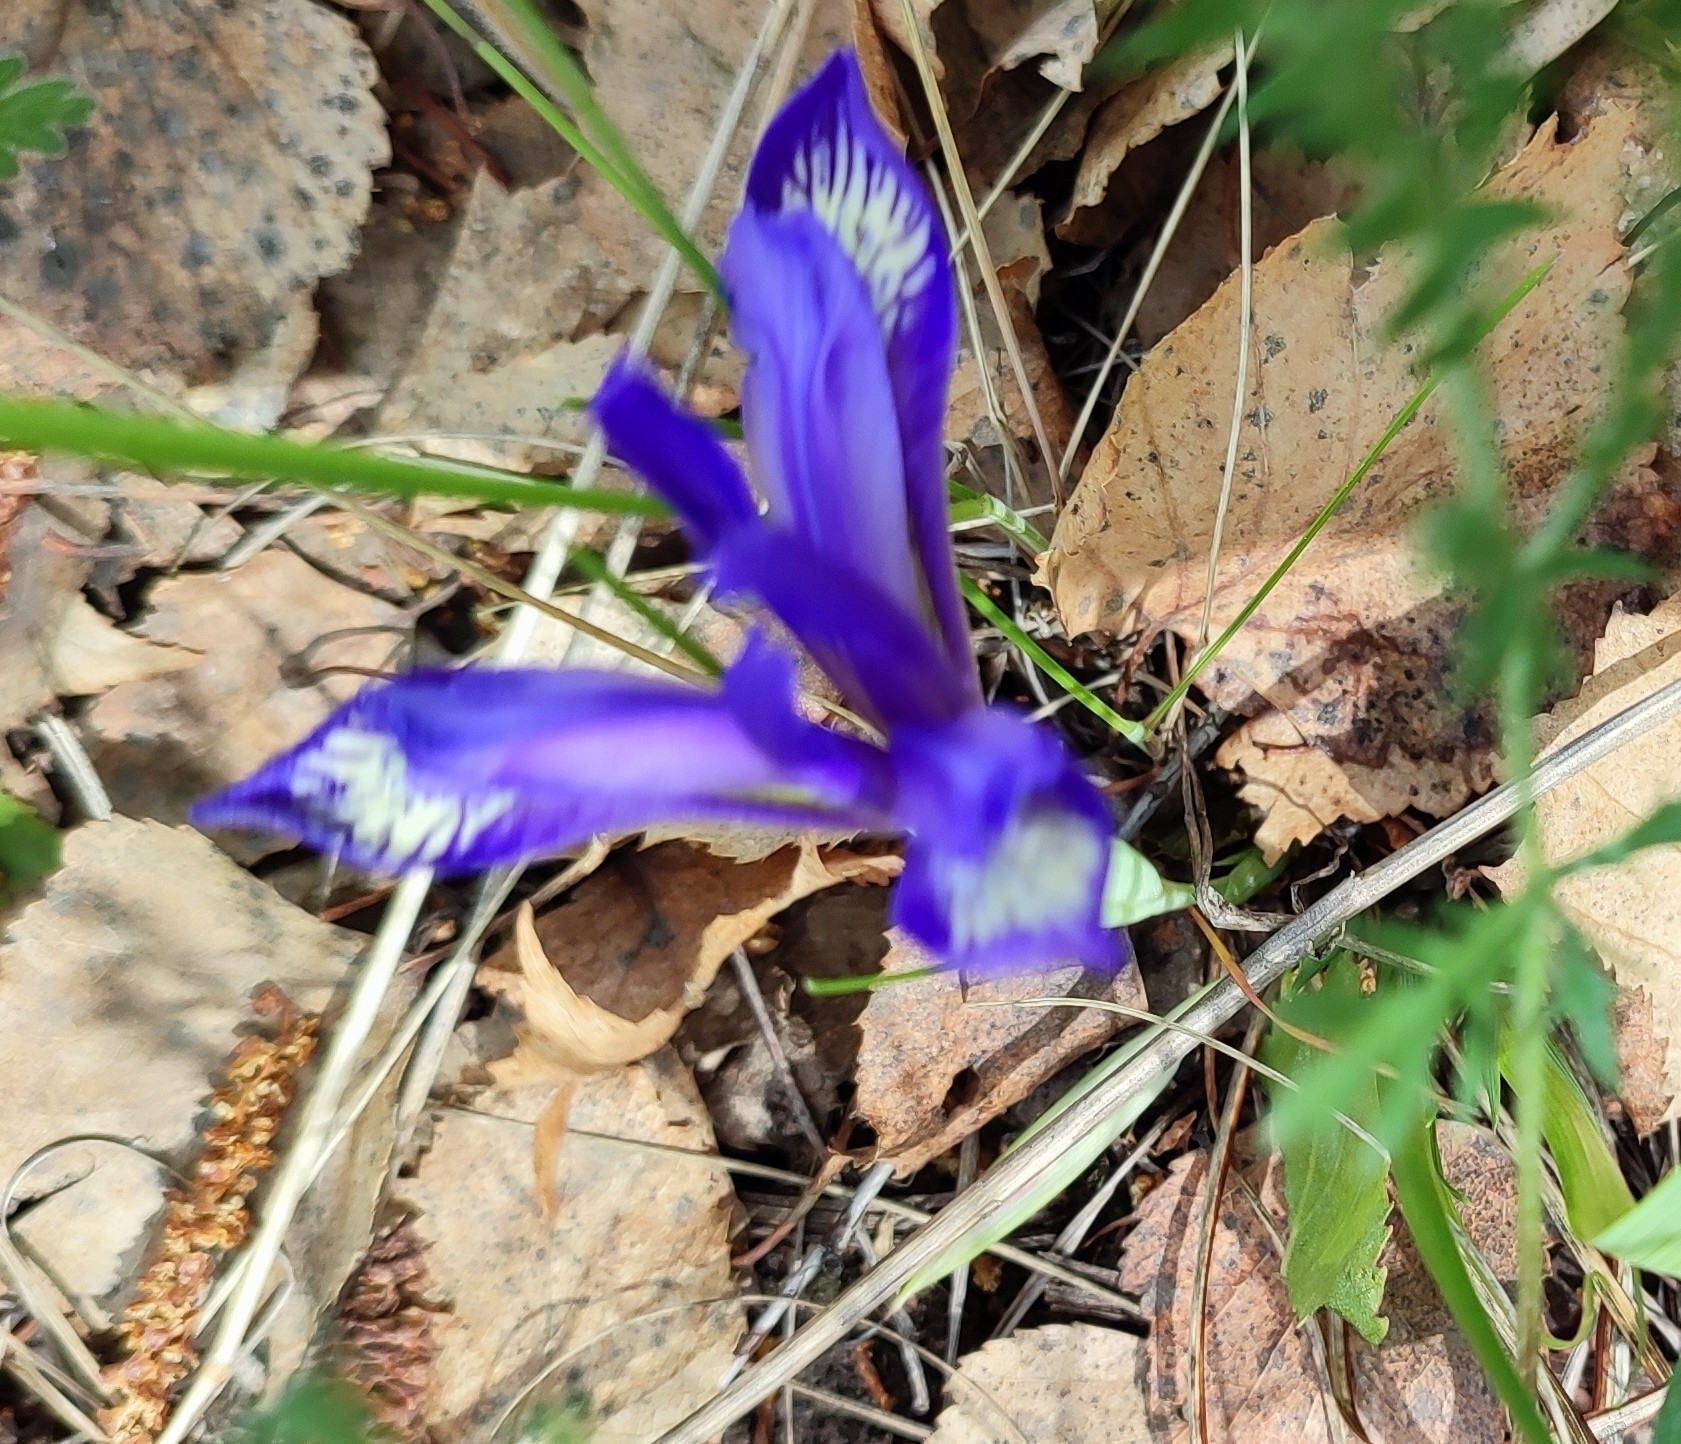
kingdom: Plantae
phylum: Tracheophyta
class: Liliopsida
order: Asparagales
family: Iridaceae
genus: Iris
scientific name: Iris ruthenica
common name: Purple-bract iris
